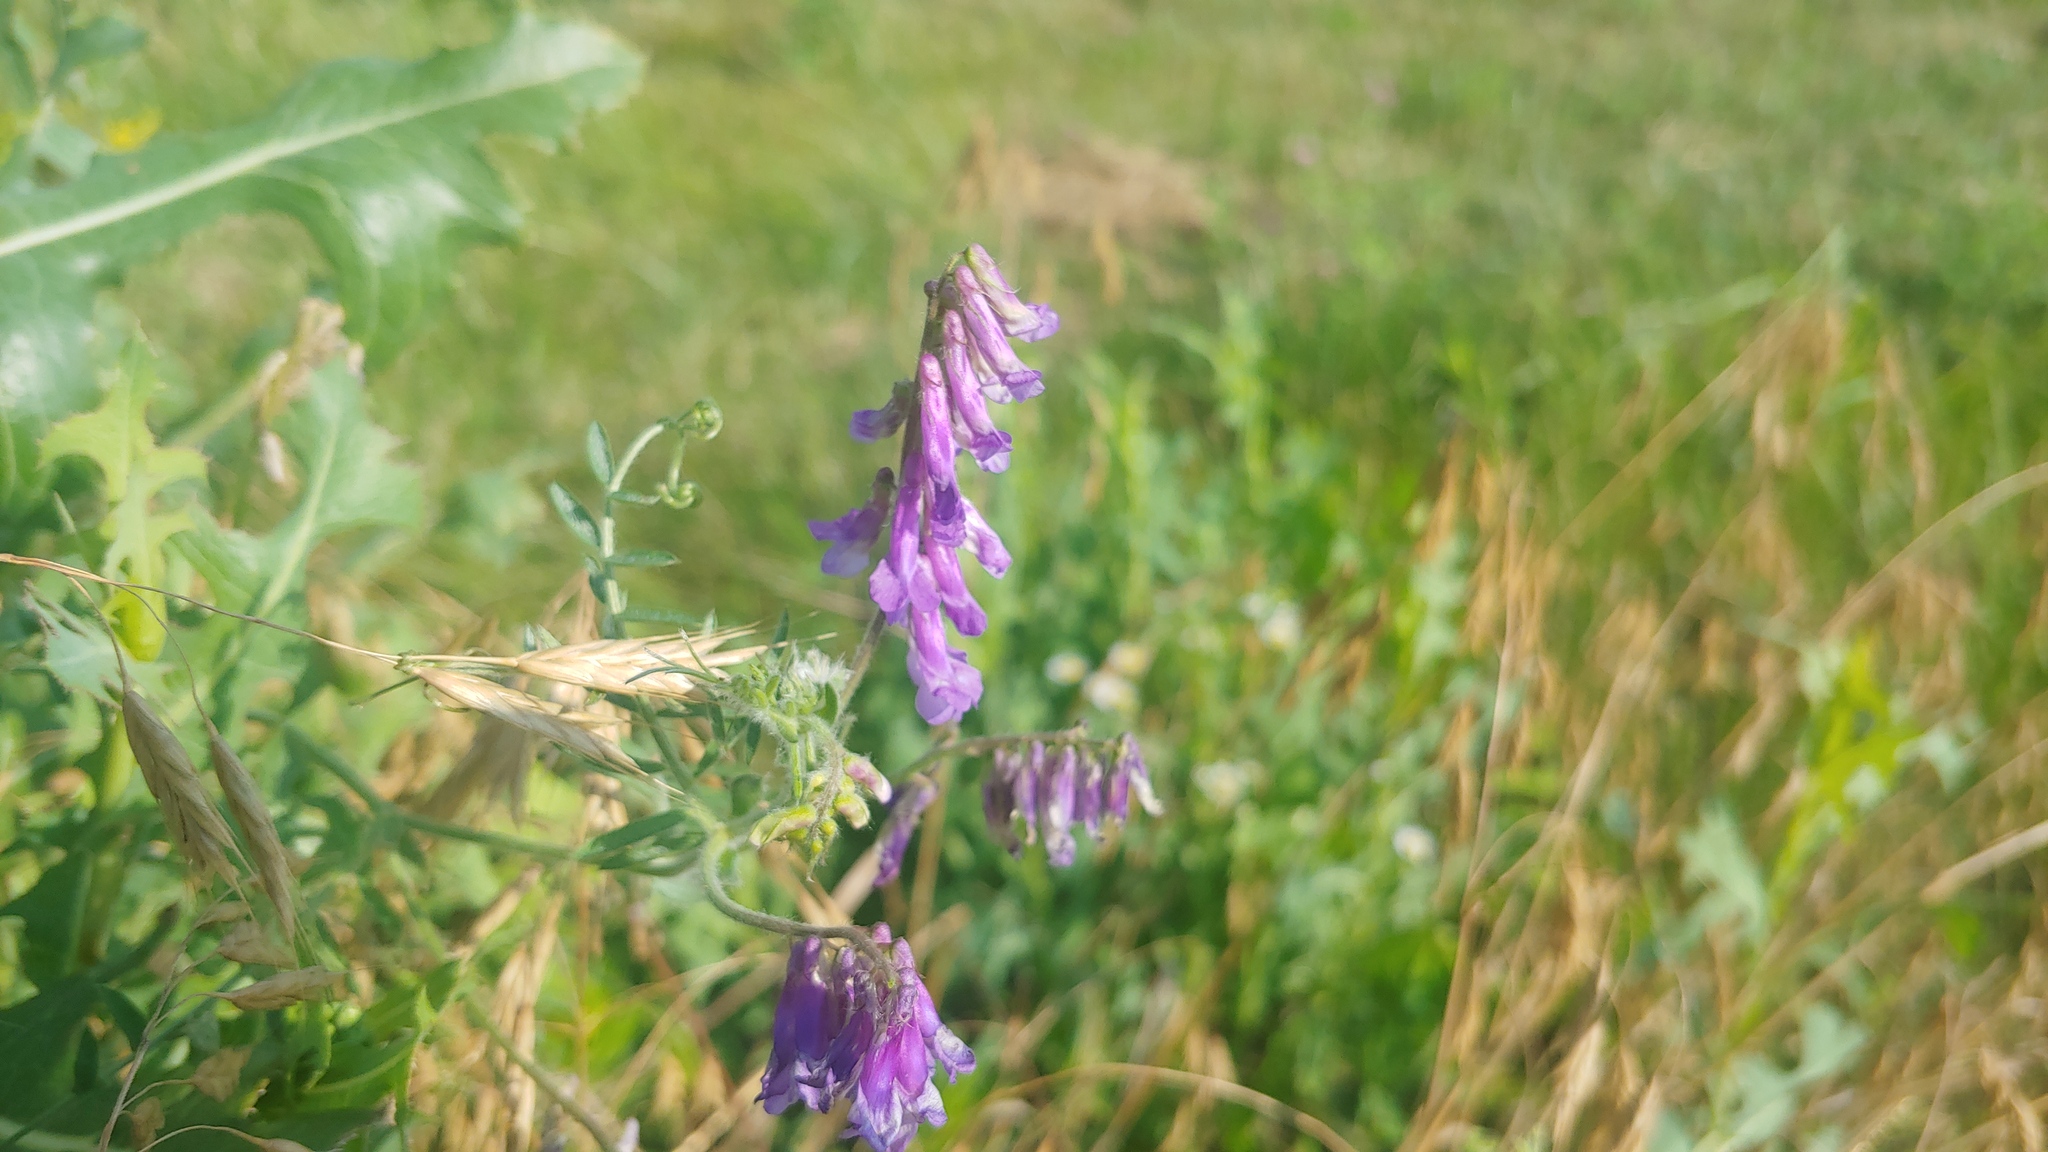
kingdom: Plantae
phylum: Tracheophyta
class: Magnoliopsida
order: Fabales
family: Fabaceae
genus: Vicia
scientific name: Vicia villosa
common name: Fodder vetch
